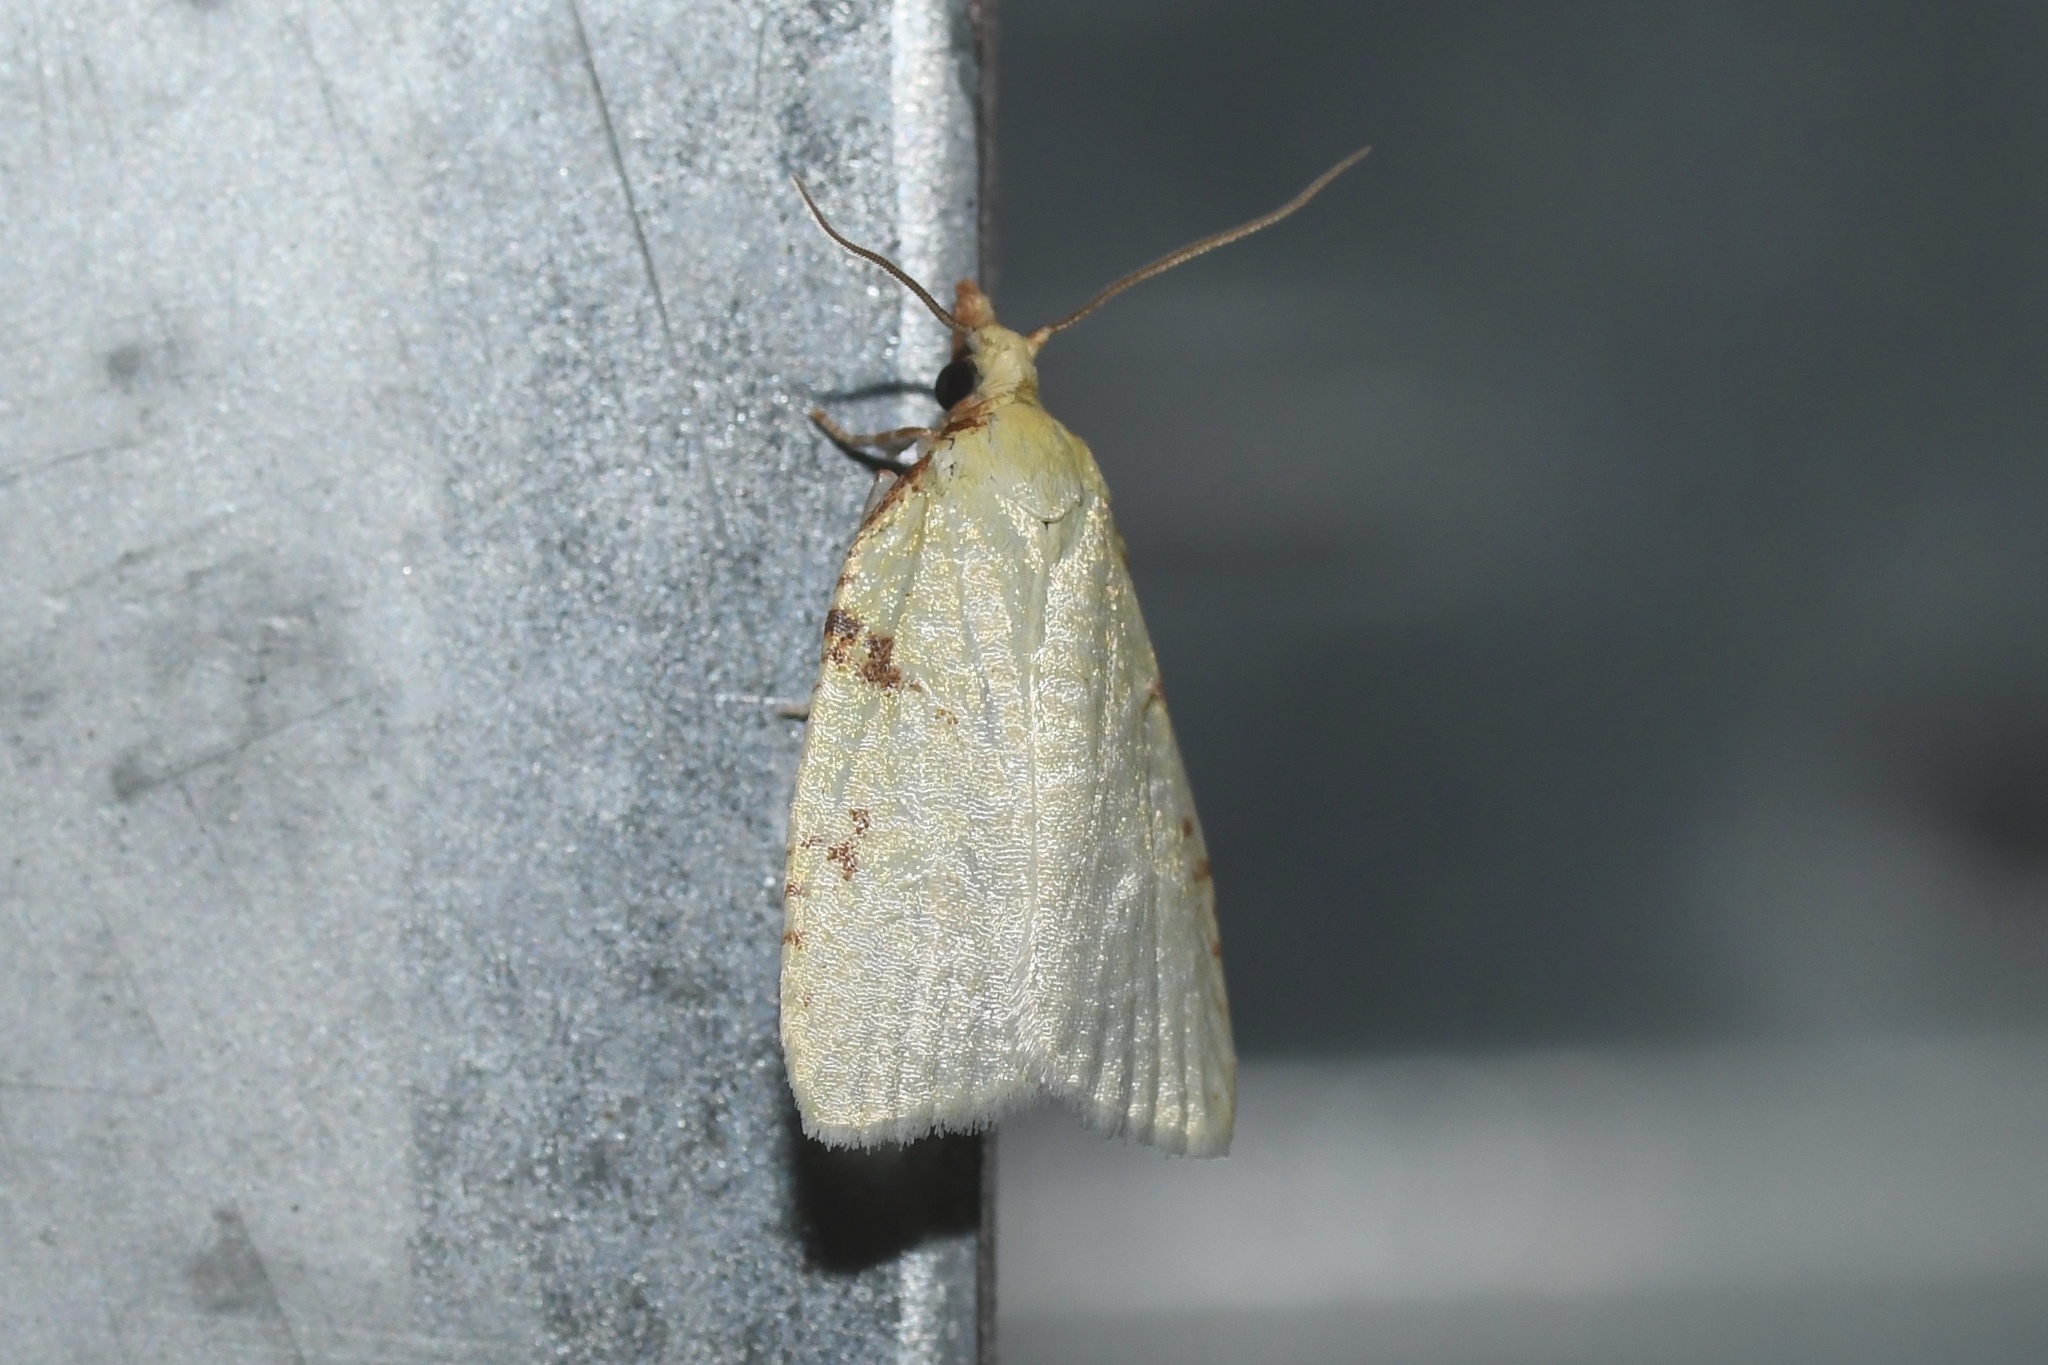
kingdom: Animalia
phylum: Arthropoda
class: Insecta
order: Lepidoptera
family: Tortricidae
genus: Cenopis
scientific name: Cenopis pettitana
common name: Maple-basswood leafroller moth
